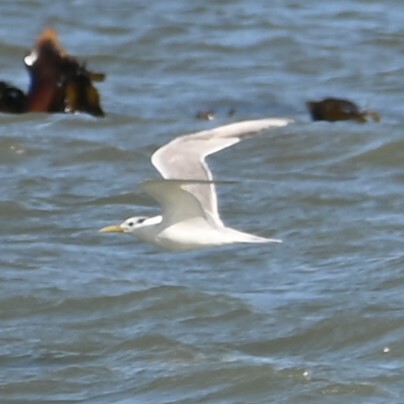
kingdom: Animalia
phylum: Chordata
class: Aves
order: Charadriiformes
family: Laridae
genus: Thalasseus
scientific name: Thalasseus bergii
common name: Greater crested tern
